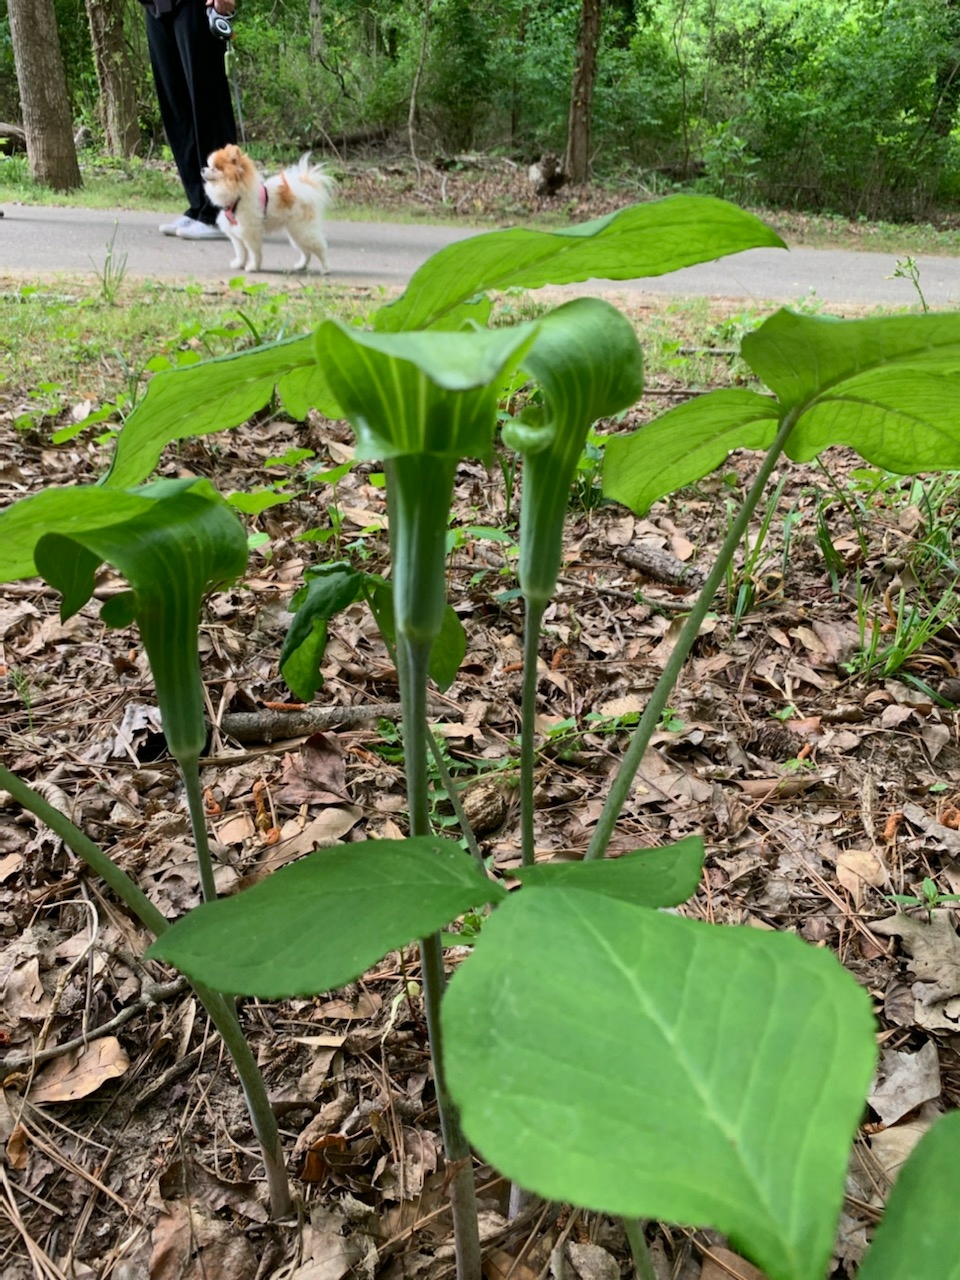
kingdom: Plantae
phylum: Tracheophyta
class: Liliopsida
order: Alismatales
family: Araceae
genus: Arisaema
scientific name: Arisaema triphyllum
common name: Jack-in-the-pulpit
